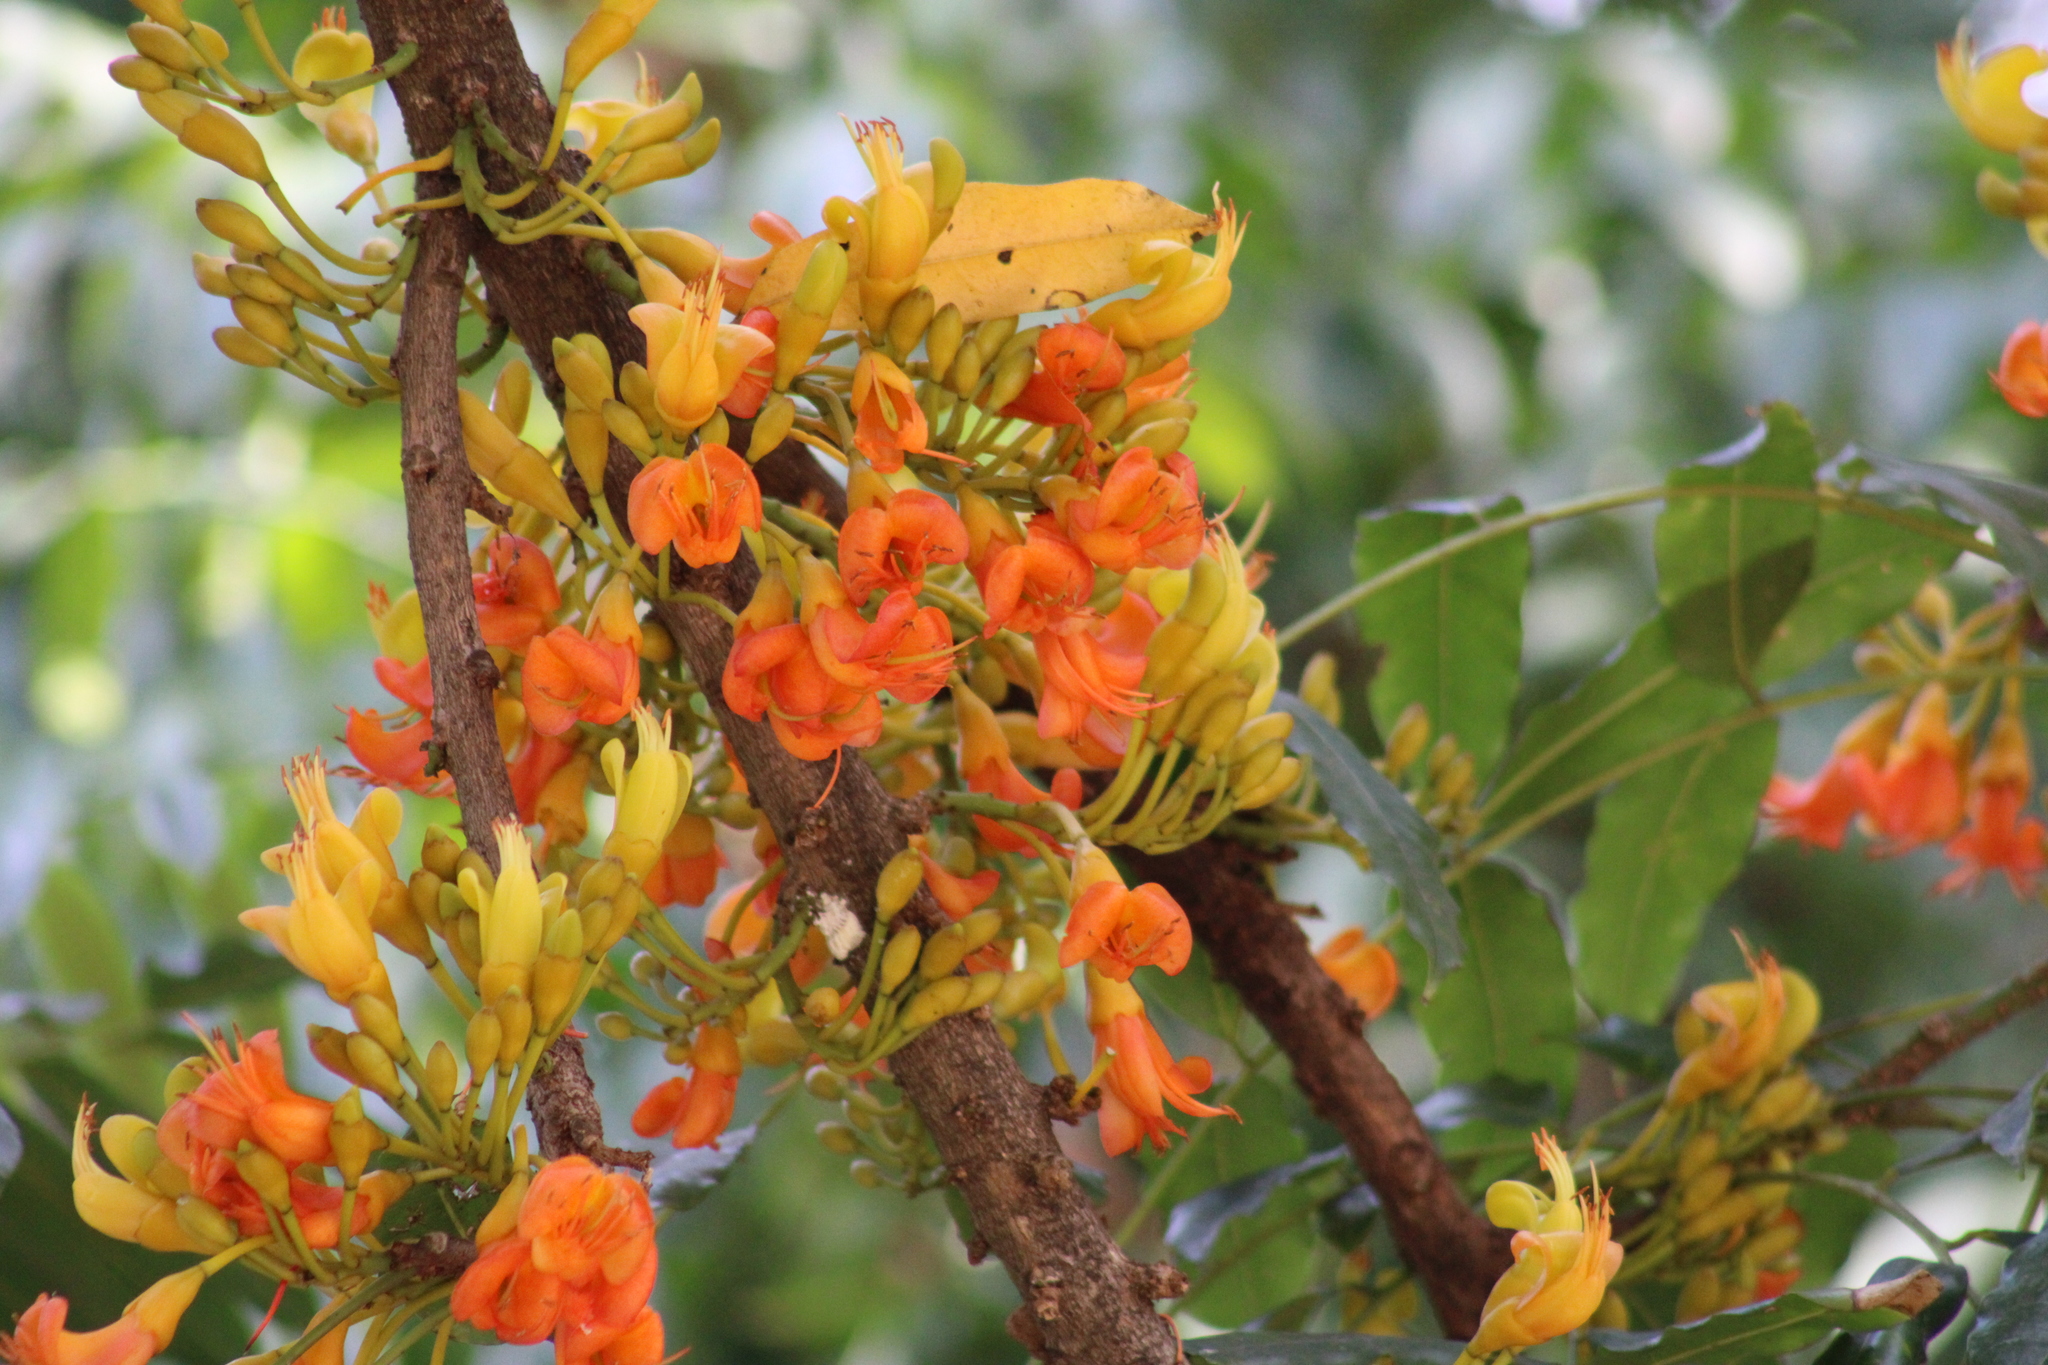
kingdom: Plantae
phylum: Tracheophyta
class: Magnoliopsida
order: Fabales
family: Fabaceae
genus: Castanospermum
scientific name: Castanospermum australe
